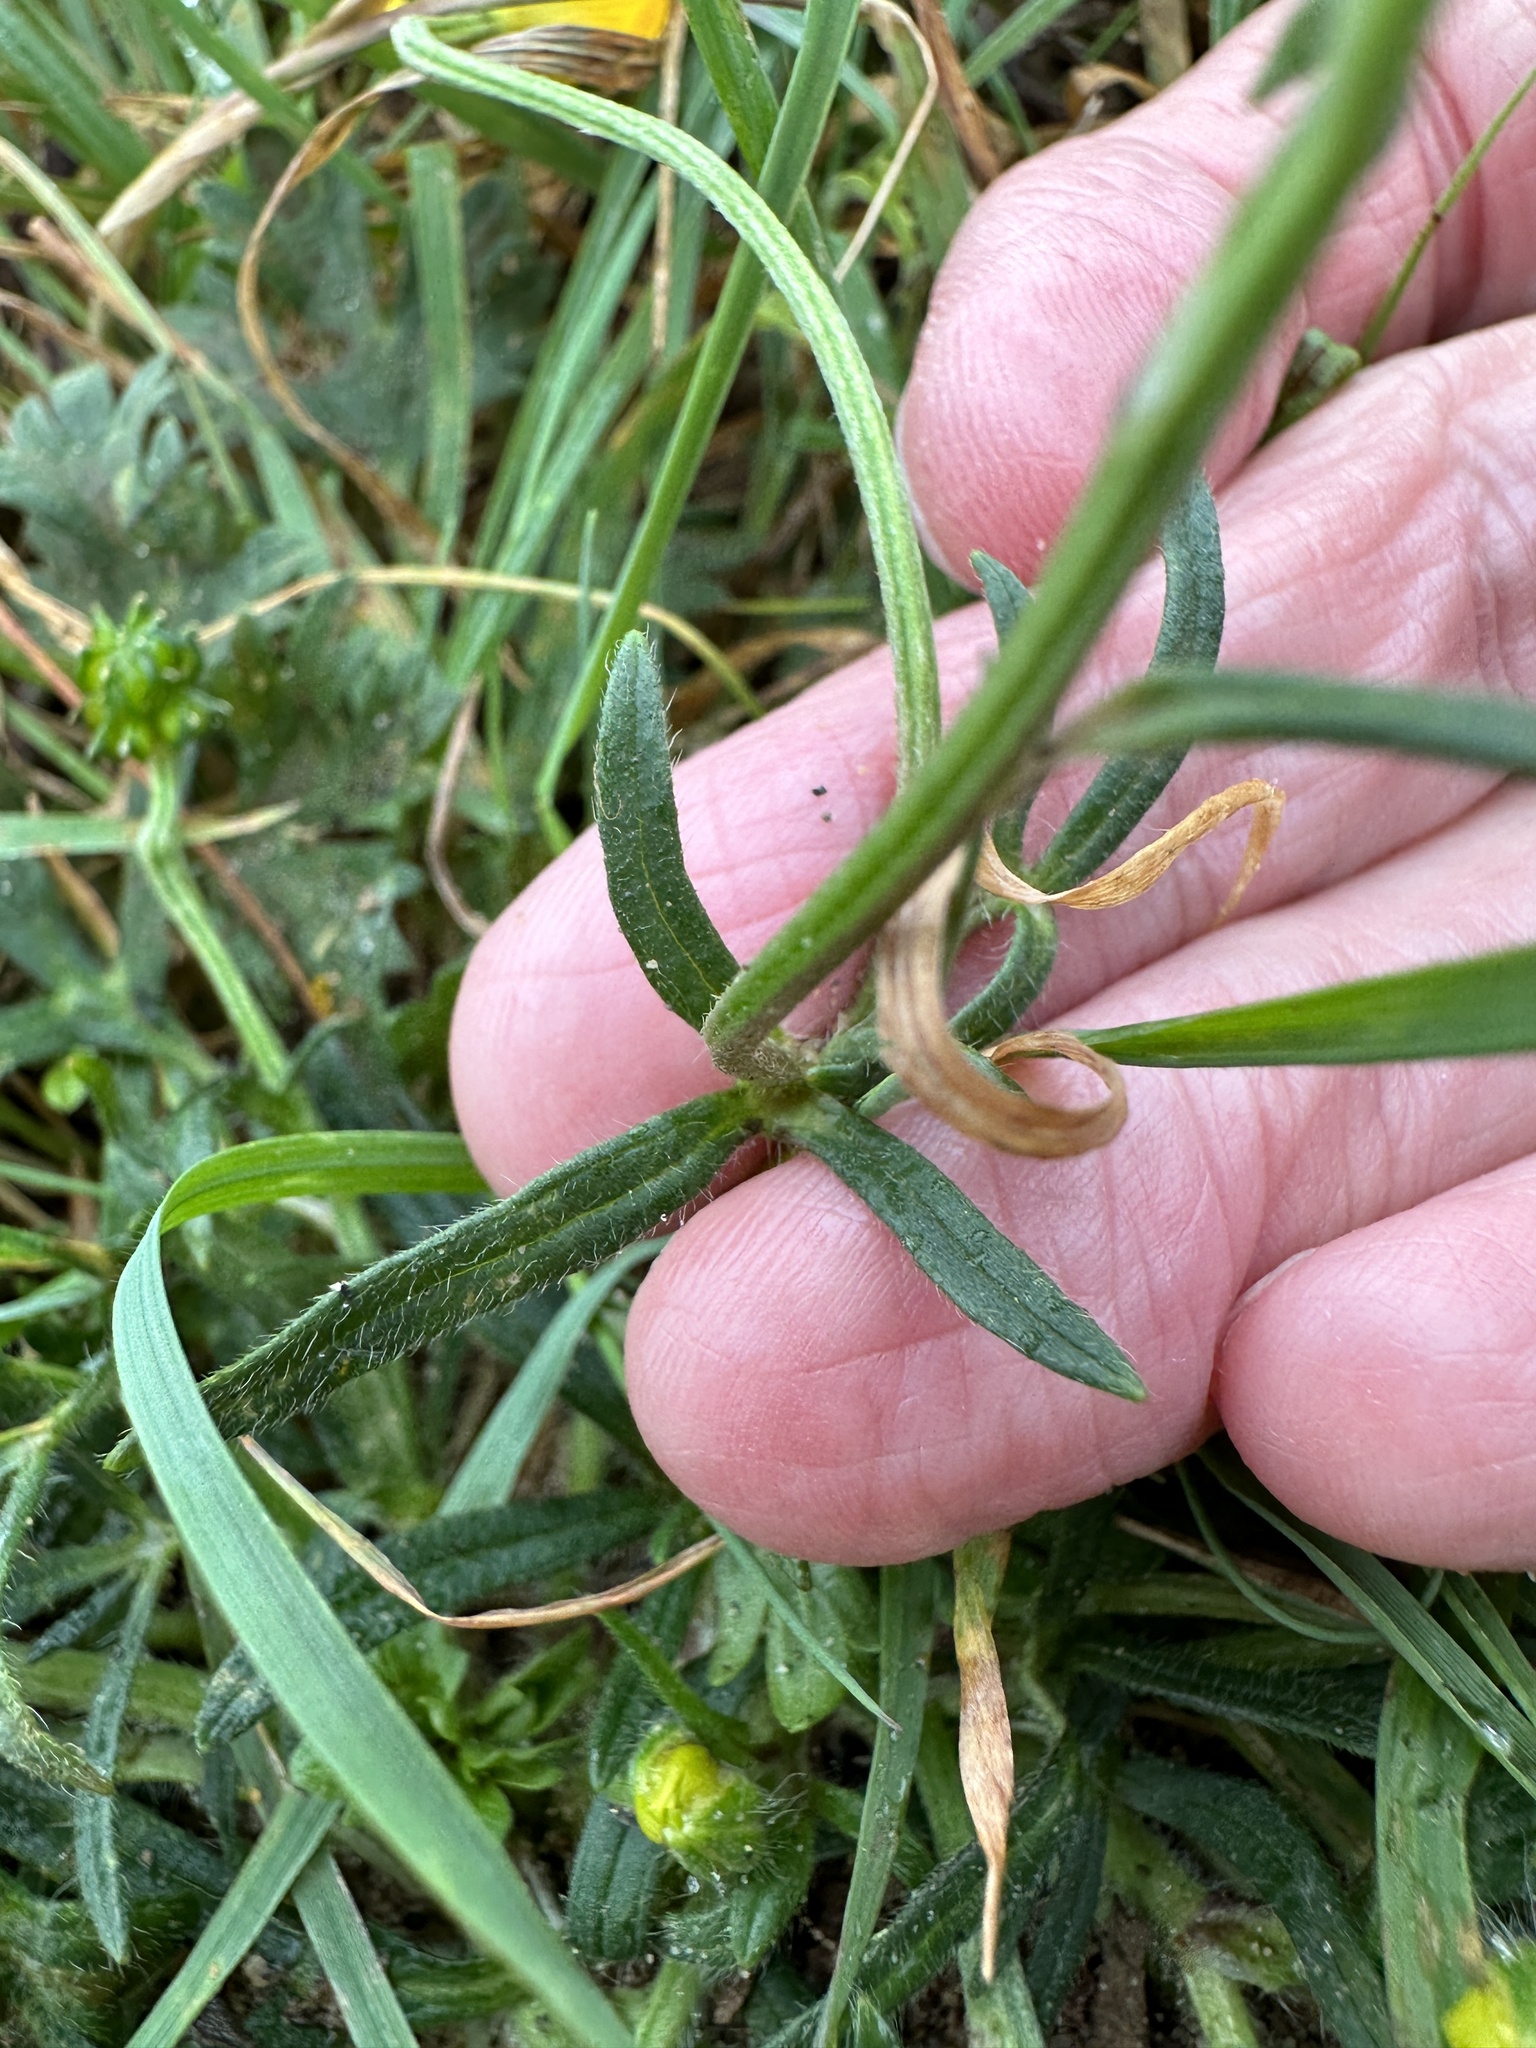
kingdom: Plantae
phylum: Tracheophyta
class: Magnoliopsida
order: Ranunculales
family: Ranunculaceae
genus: Ranunculus
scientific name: Ranunculus bulbosus
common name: Bulbous buttercup
